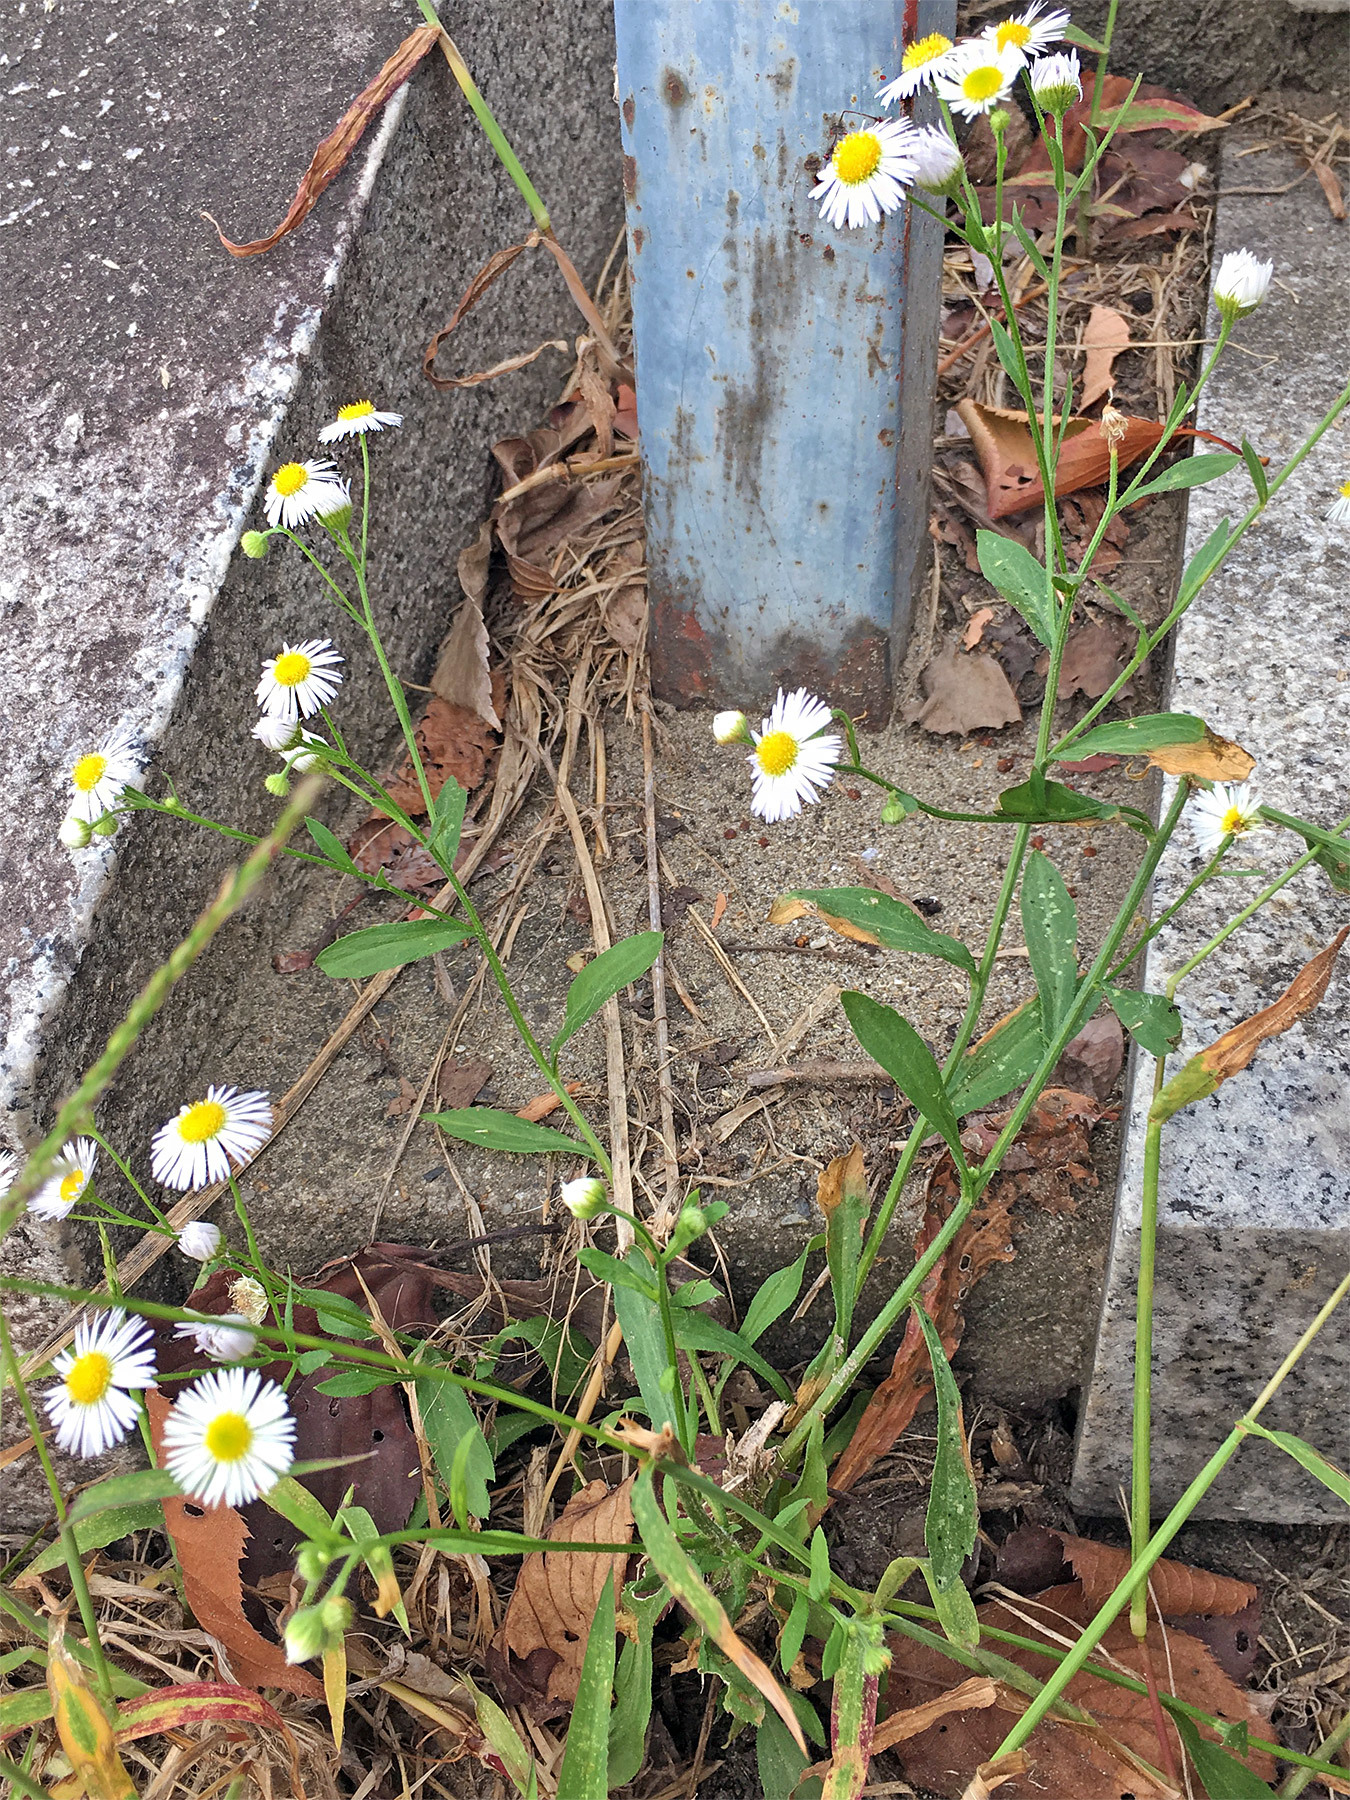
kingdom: Plantae
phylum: Tracheophyta
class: Magnoliopsida
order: Asterales
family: Asteraceae
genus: Erigeron
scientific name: Erigeron annuus
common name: Tall fleabane
